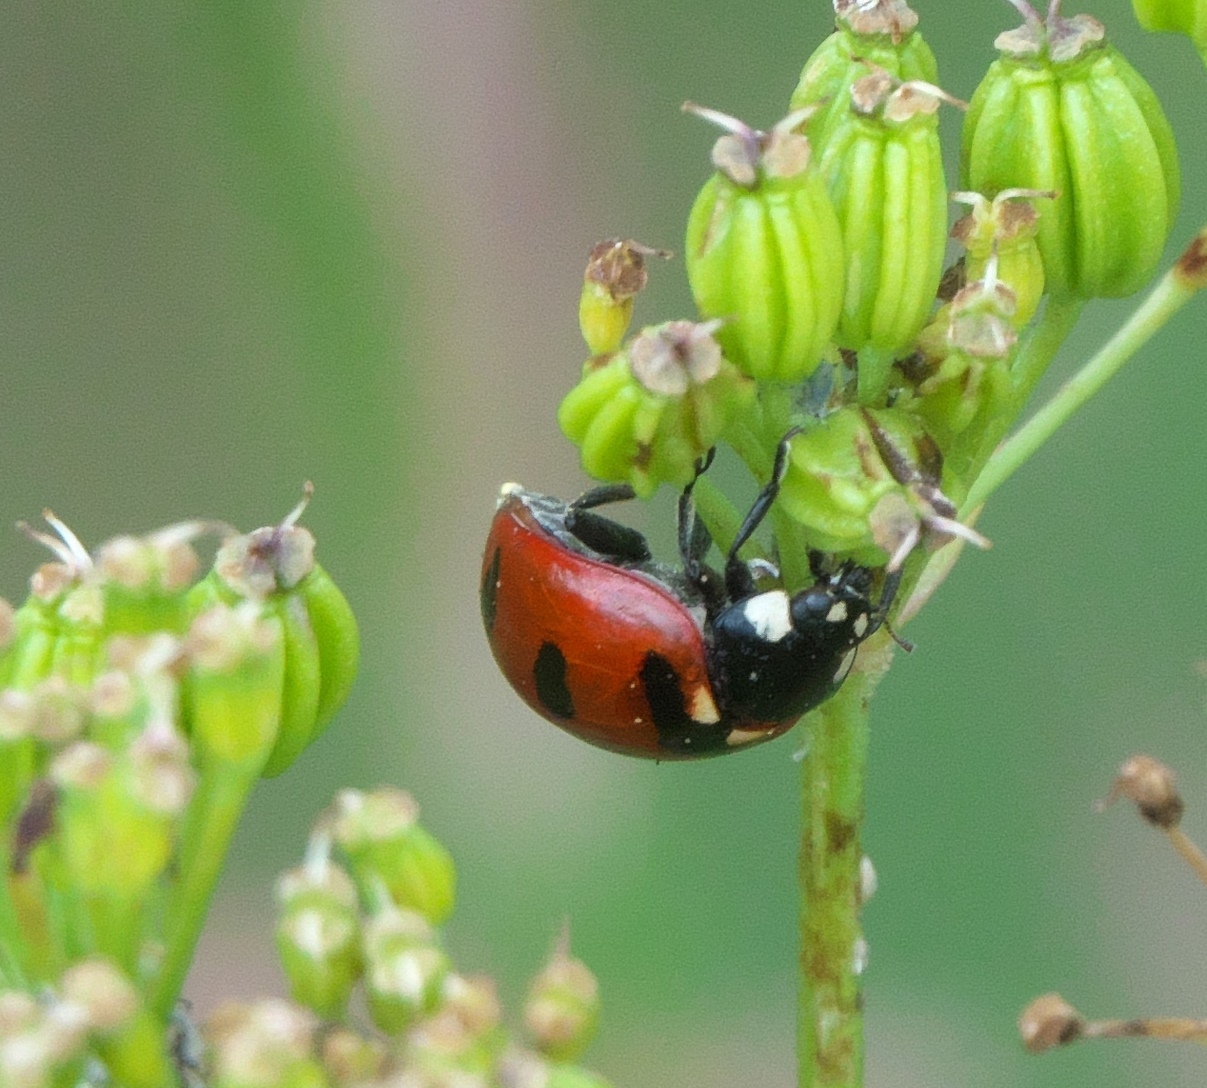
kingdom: Animalia
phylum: Arthropoda
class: Insecta
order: Coleoptera
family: Coccinellidae
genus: Coccinella
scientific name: Coccinella transversoguttata
